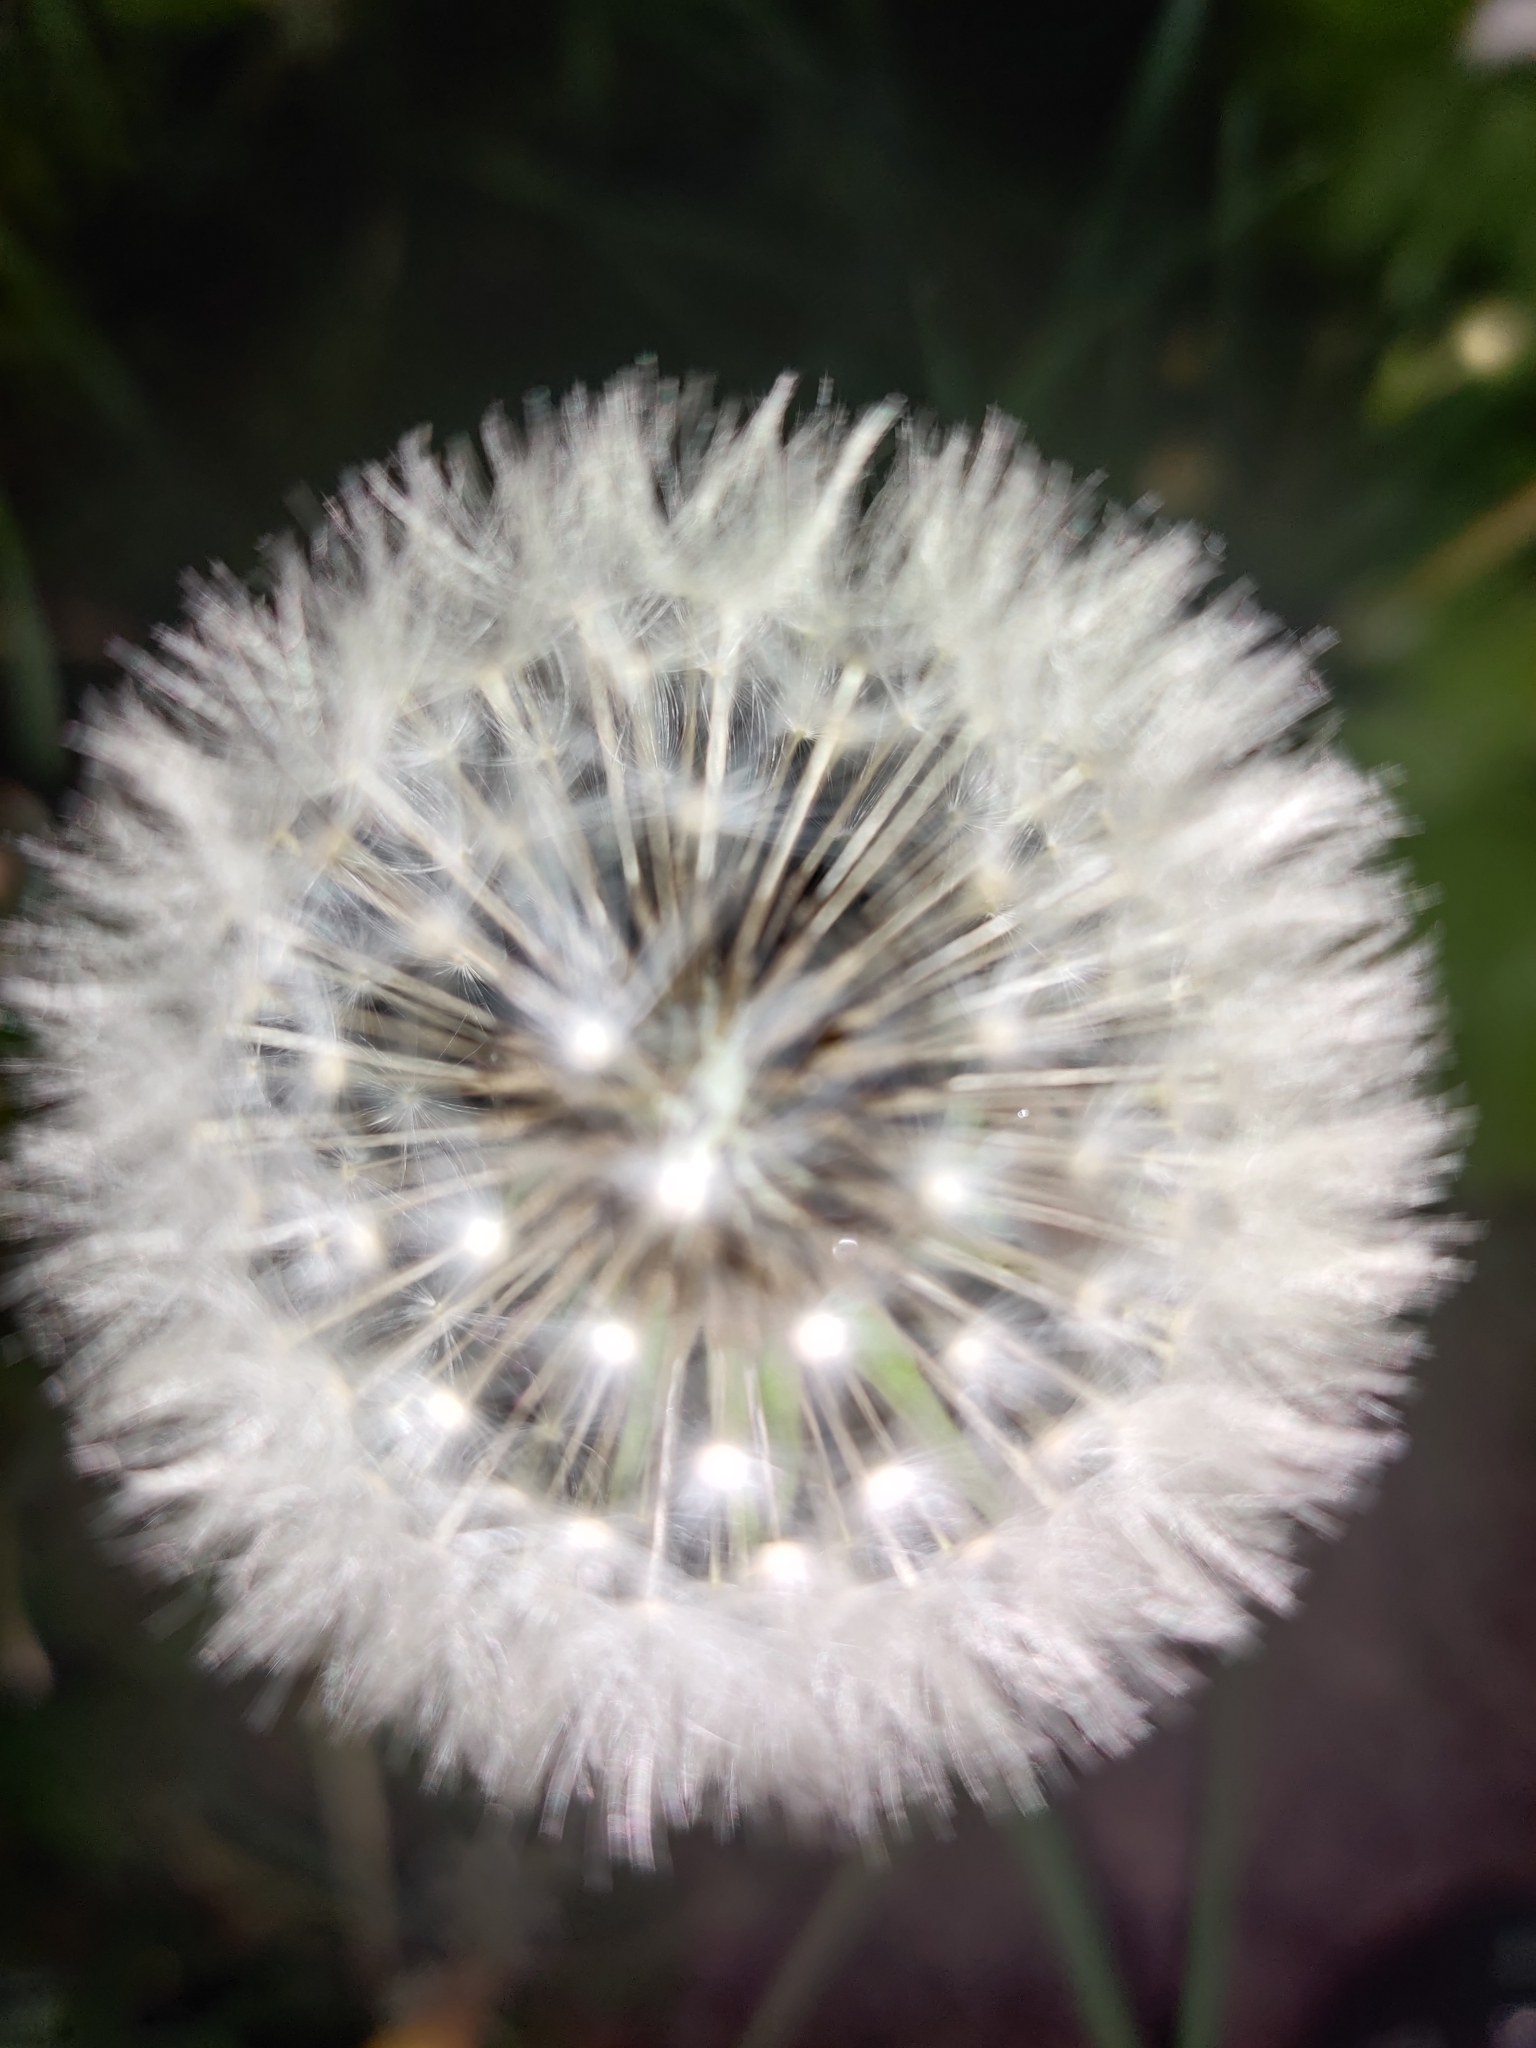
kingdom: Plantae
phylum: Tracheophyta
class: Magnoliopsida
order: Asterales
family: Asteraceae
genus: Taraxacum
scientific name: Taraxacum officinale
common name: Common dandelion
